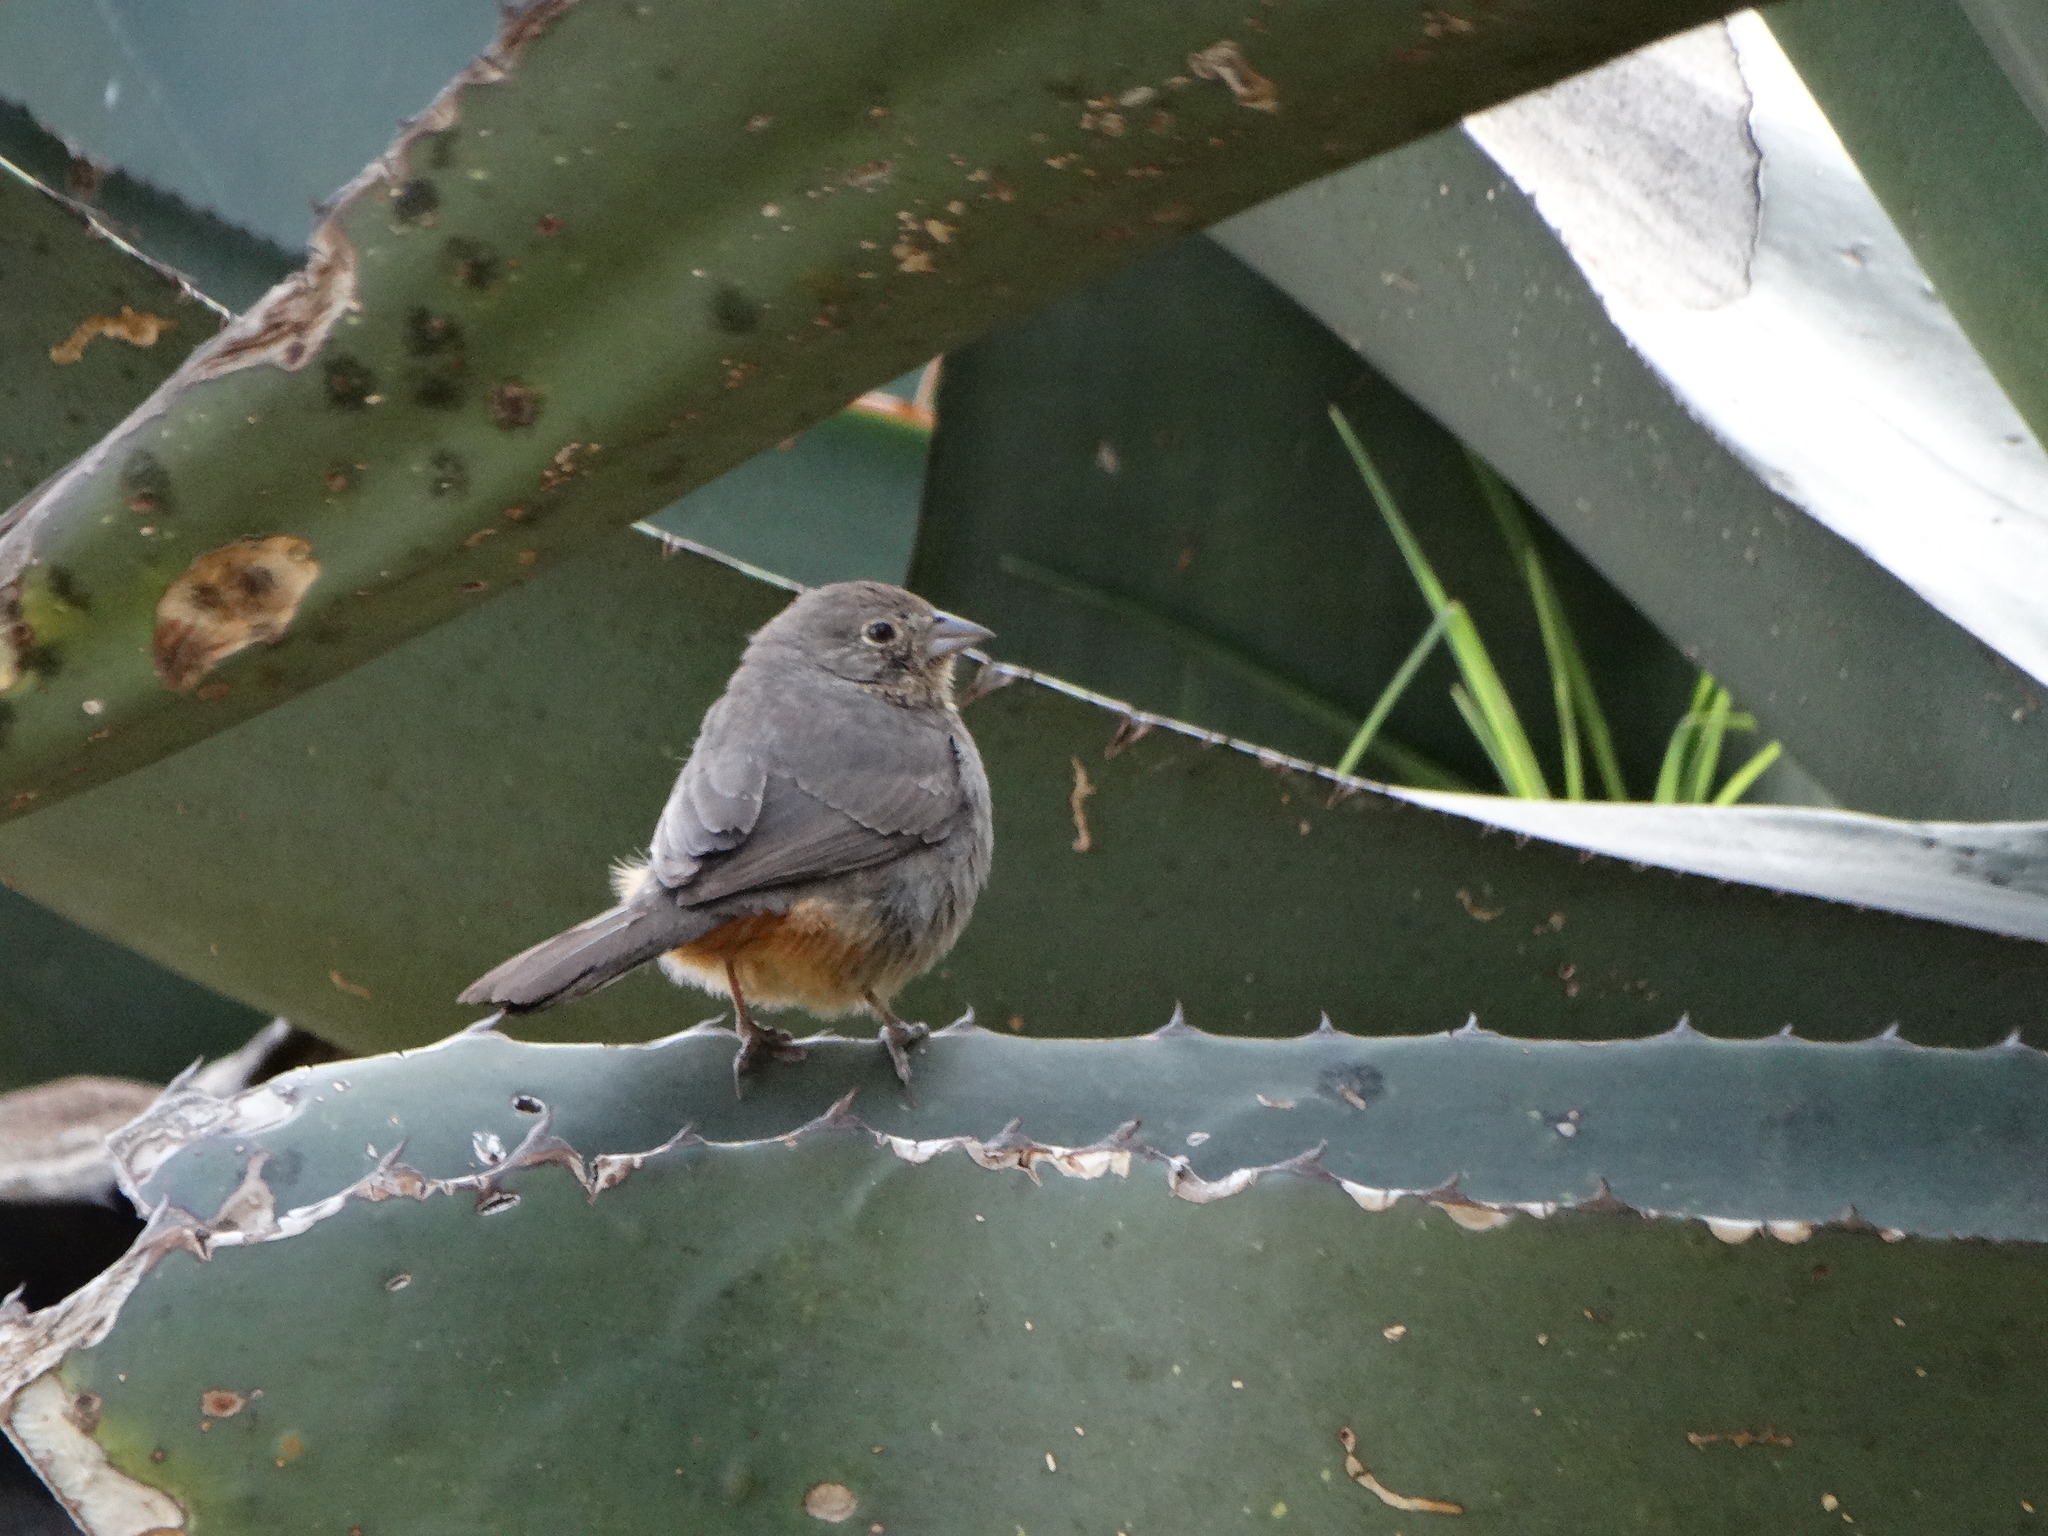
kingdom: Animalia
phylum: Chordata
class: Aves
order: Passeriformes
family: Passerellidae
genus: Melozone
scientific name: Melozone fusca
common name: Canyon towhee
